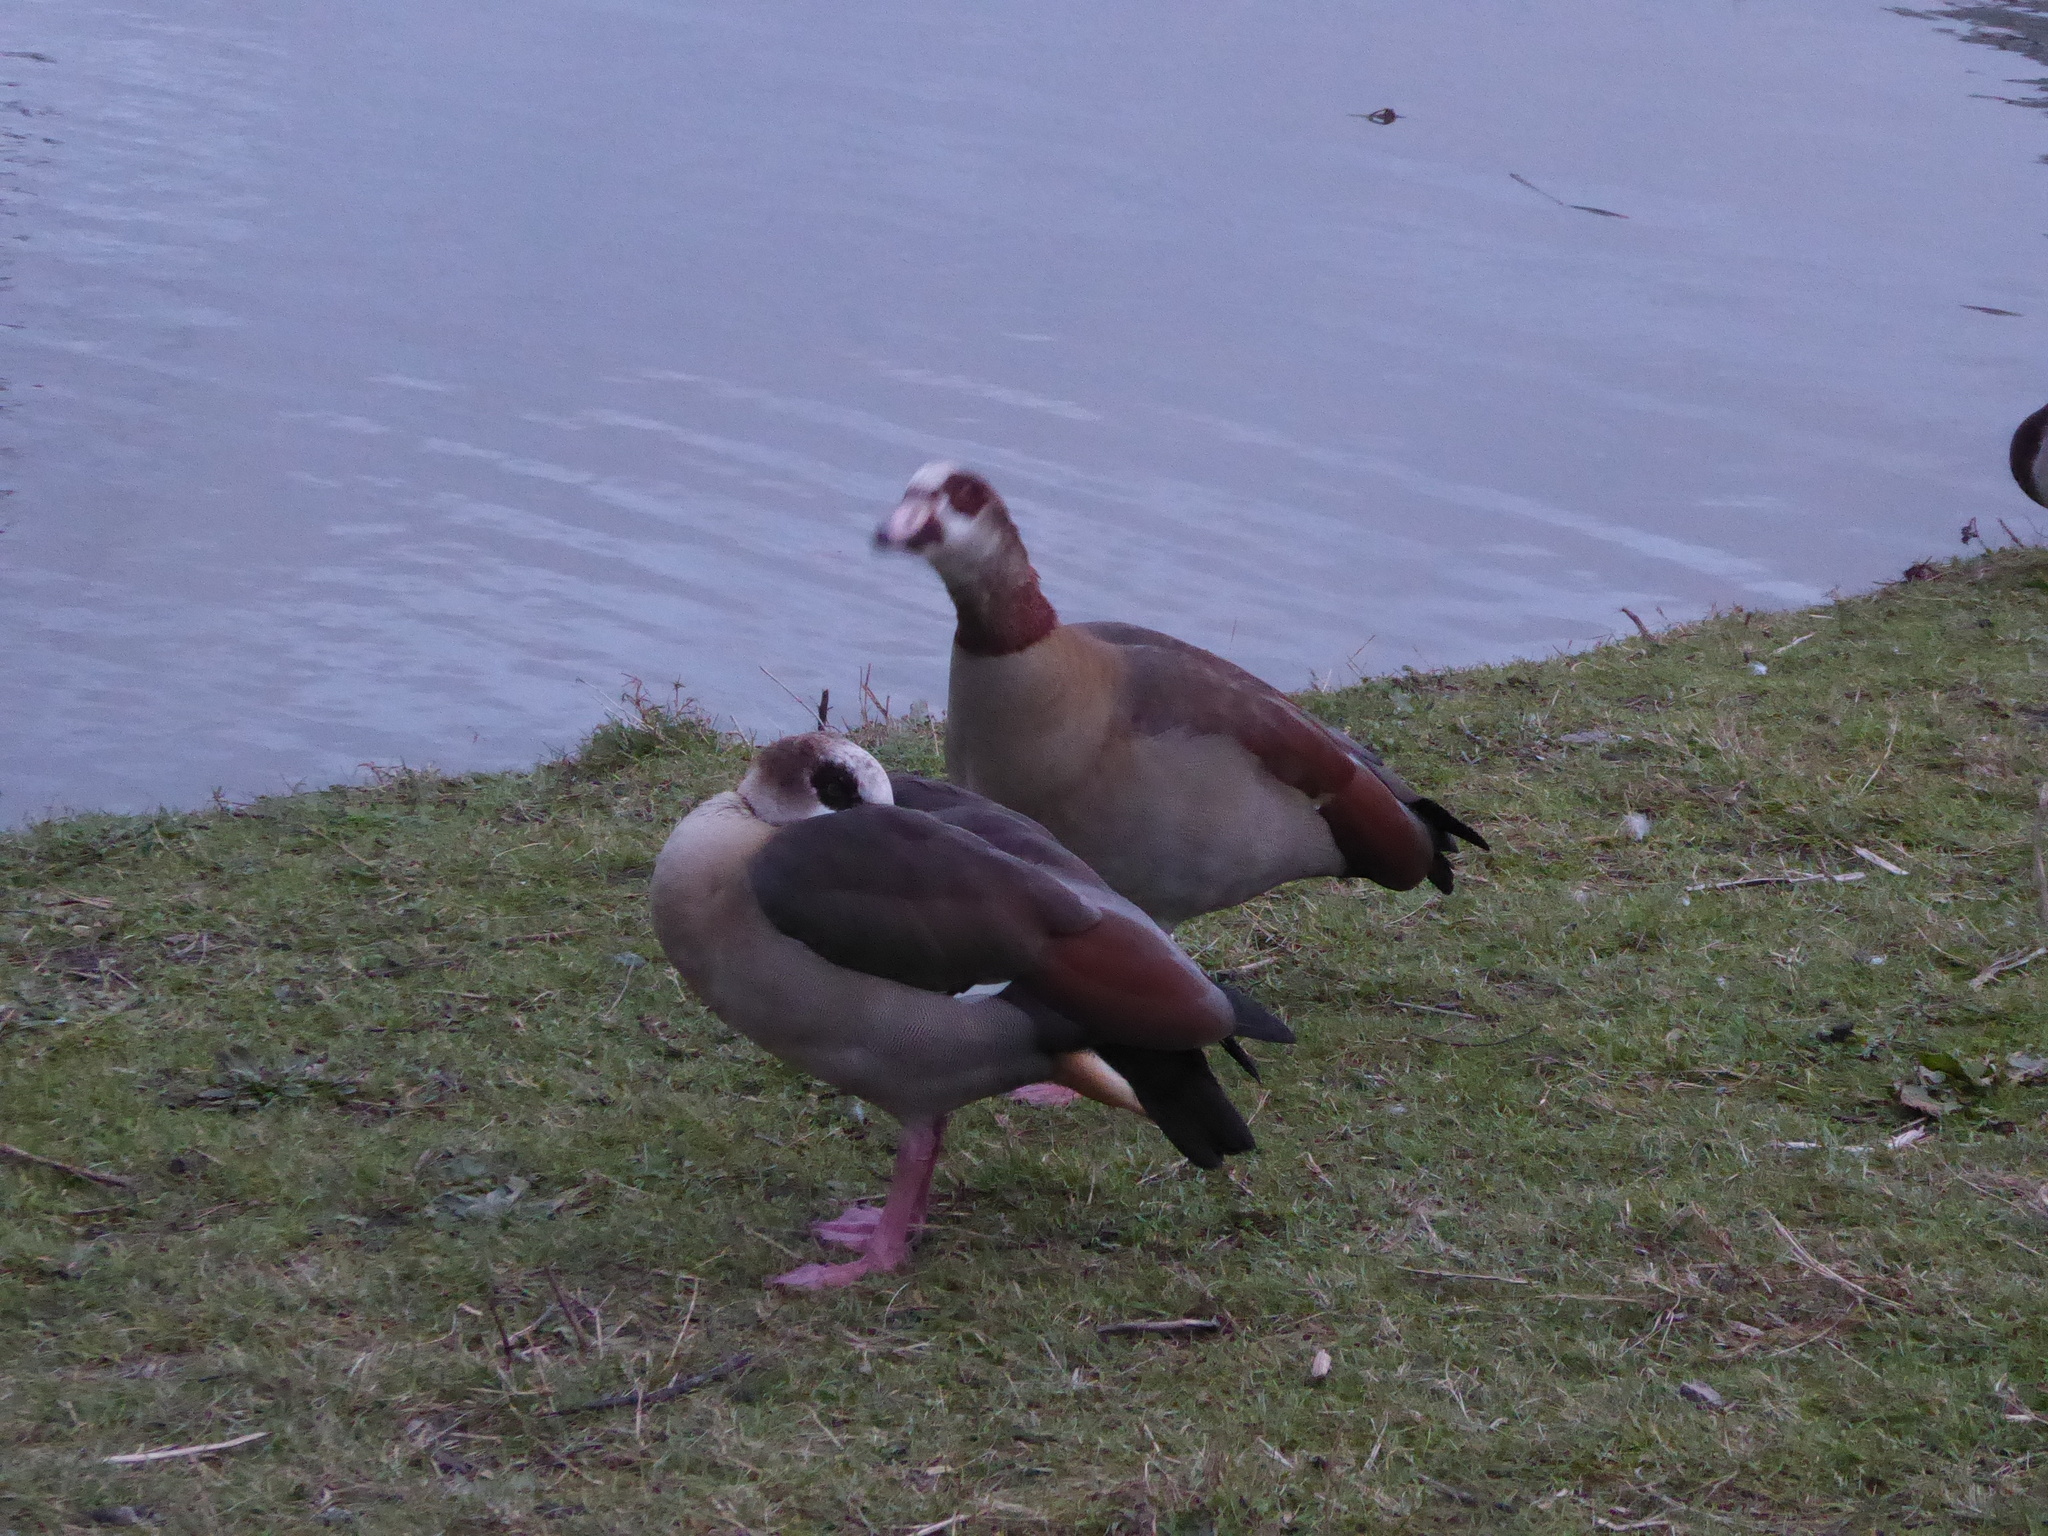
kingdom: Animalia
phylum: Chordata
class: Aves
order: Anseriformes
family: Anatidae
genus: Alopochen
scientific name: Alopochen aegyptiaca
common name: Egyptian goose
